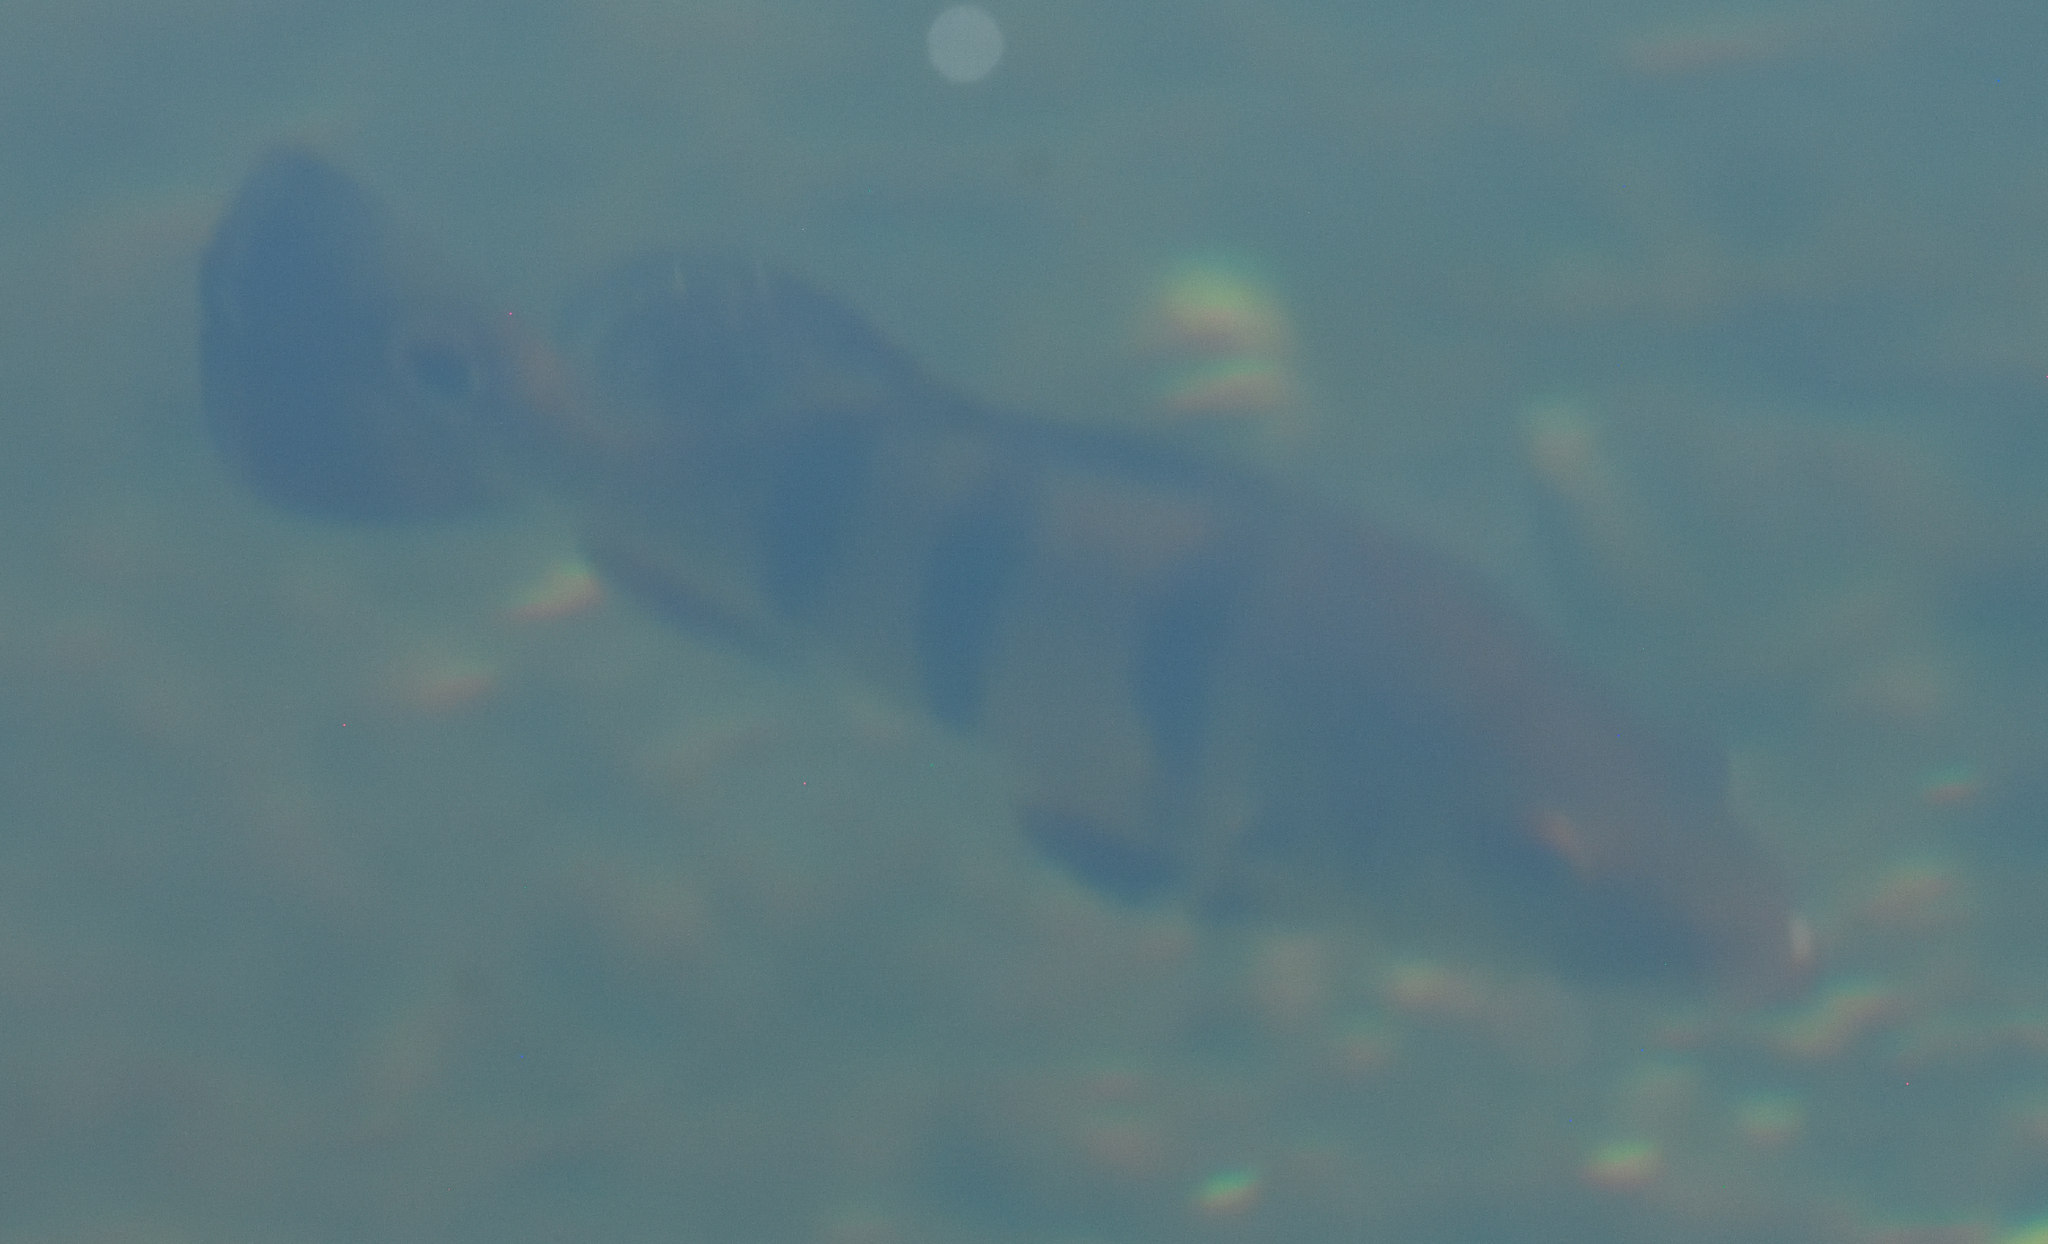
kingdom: Animalia
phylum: Chordata
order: Perciformes
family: Cichlidae
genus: Cichla
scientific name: Cichla ocellaris
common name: Peacock cichlid
